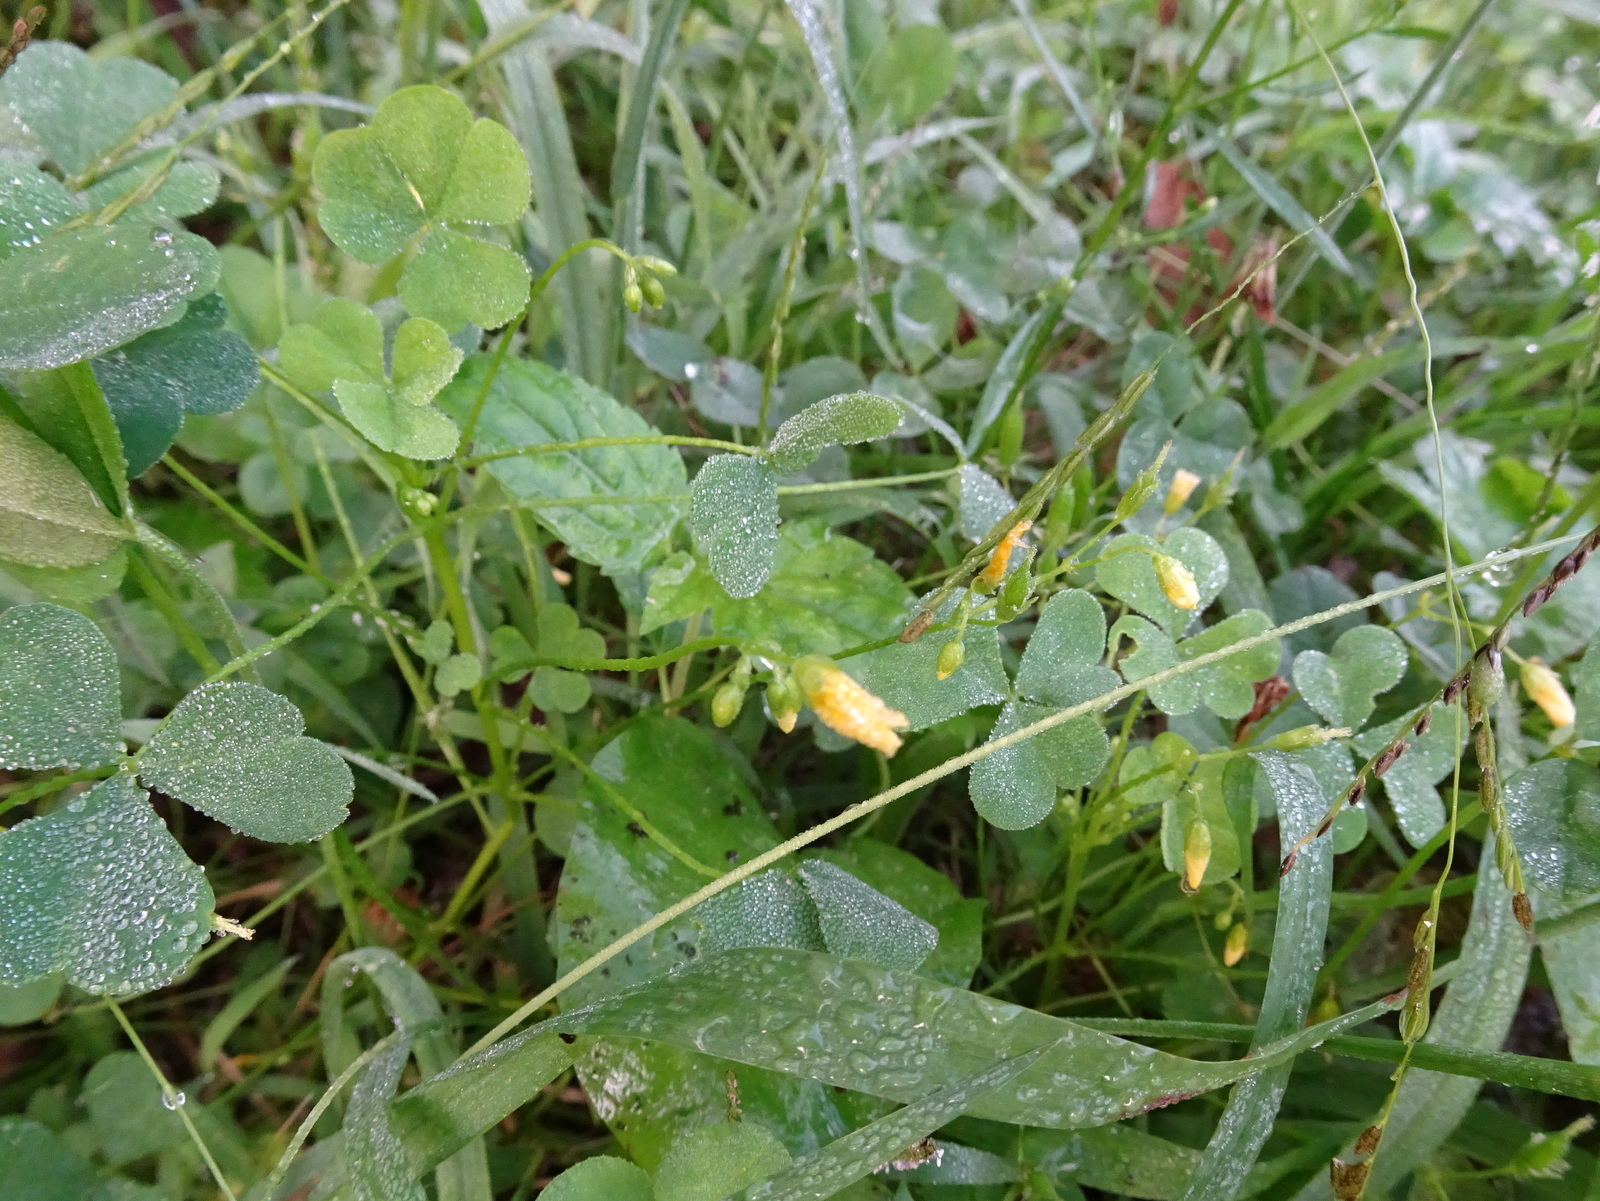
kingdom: Plantae
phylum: Tracheophyta
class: Magnoliopsida
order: Oxalidales
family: Oxalidaceae
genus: Oxalis
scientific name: Oxalis stricta
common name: Upright yellow-sorrel
